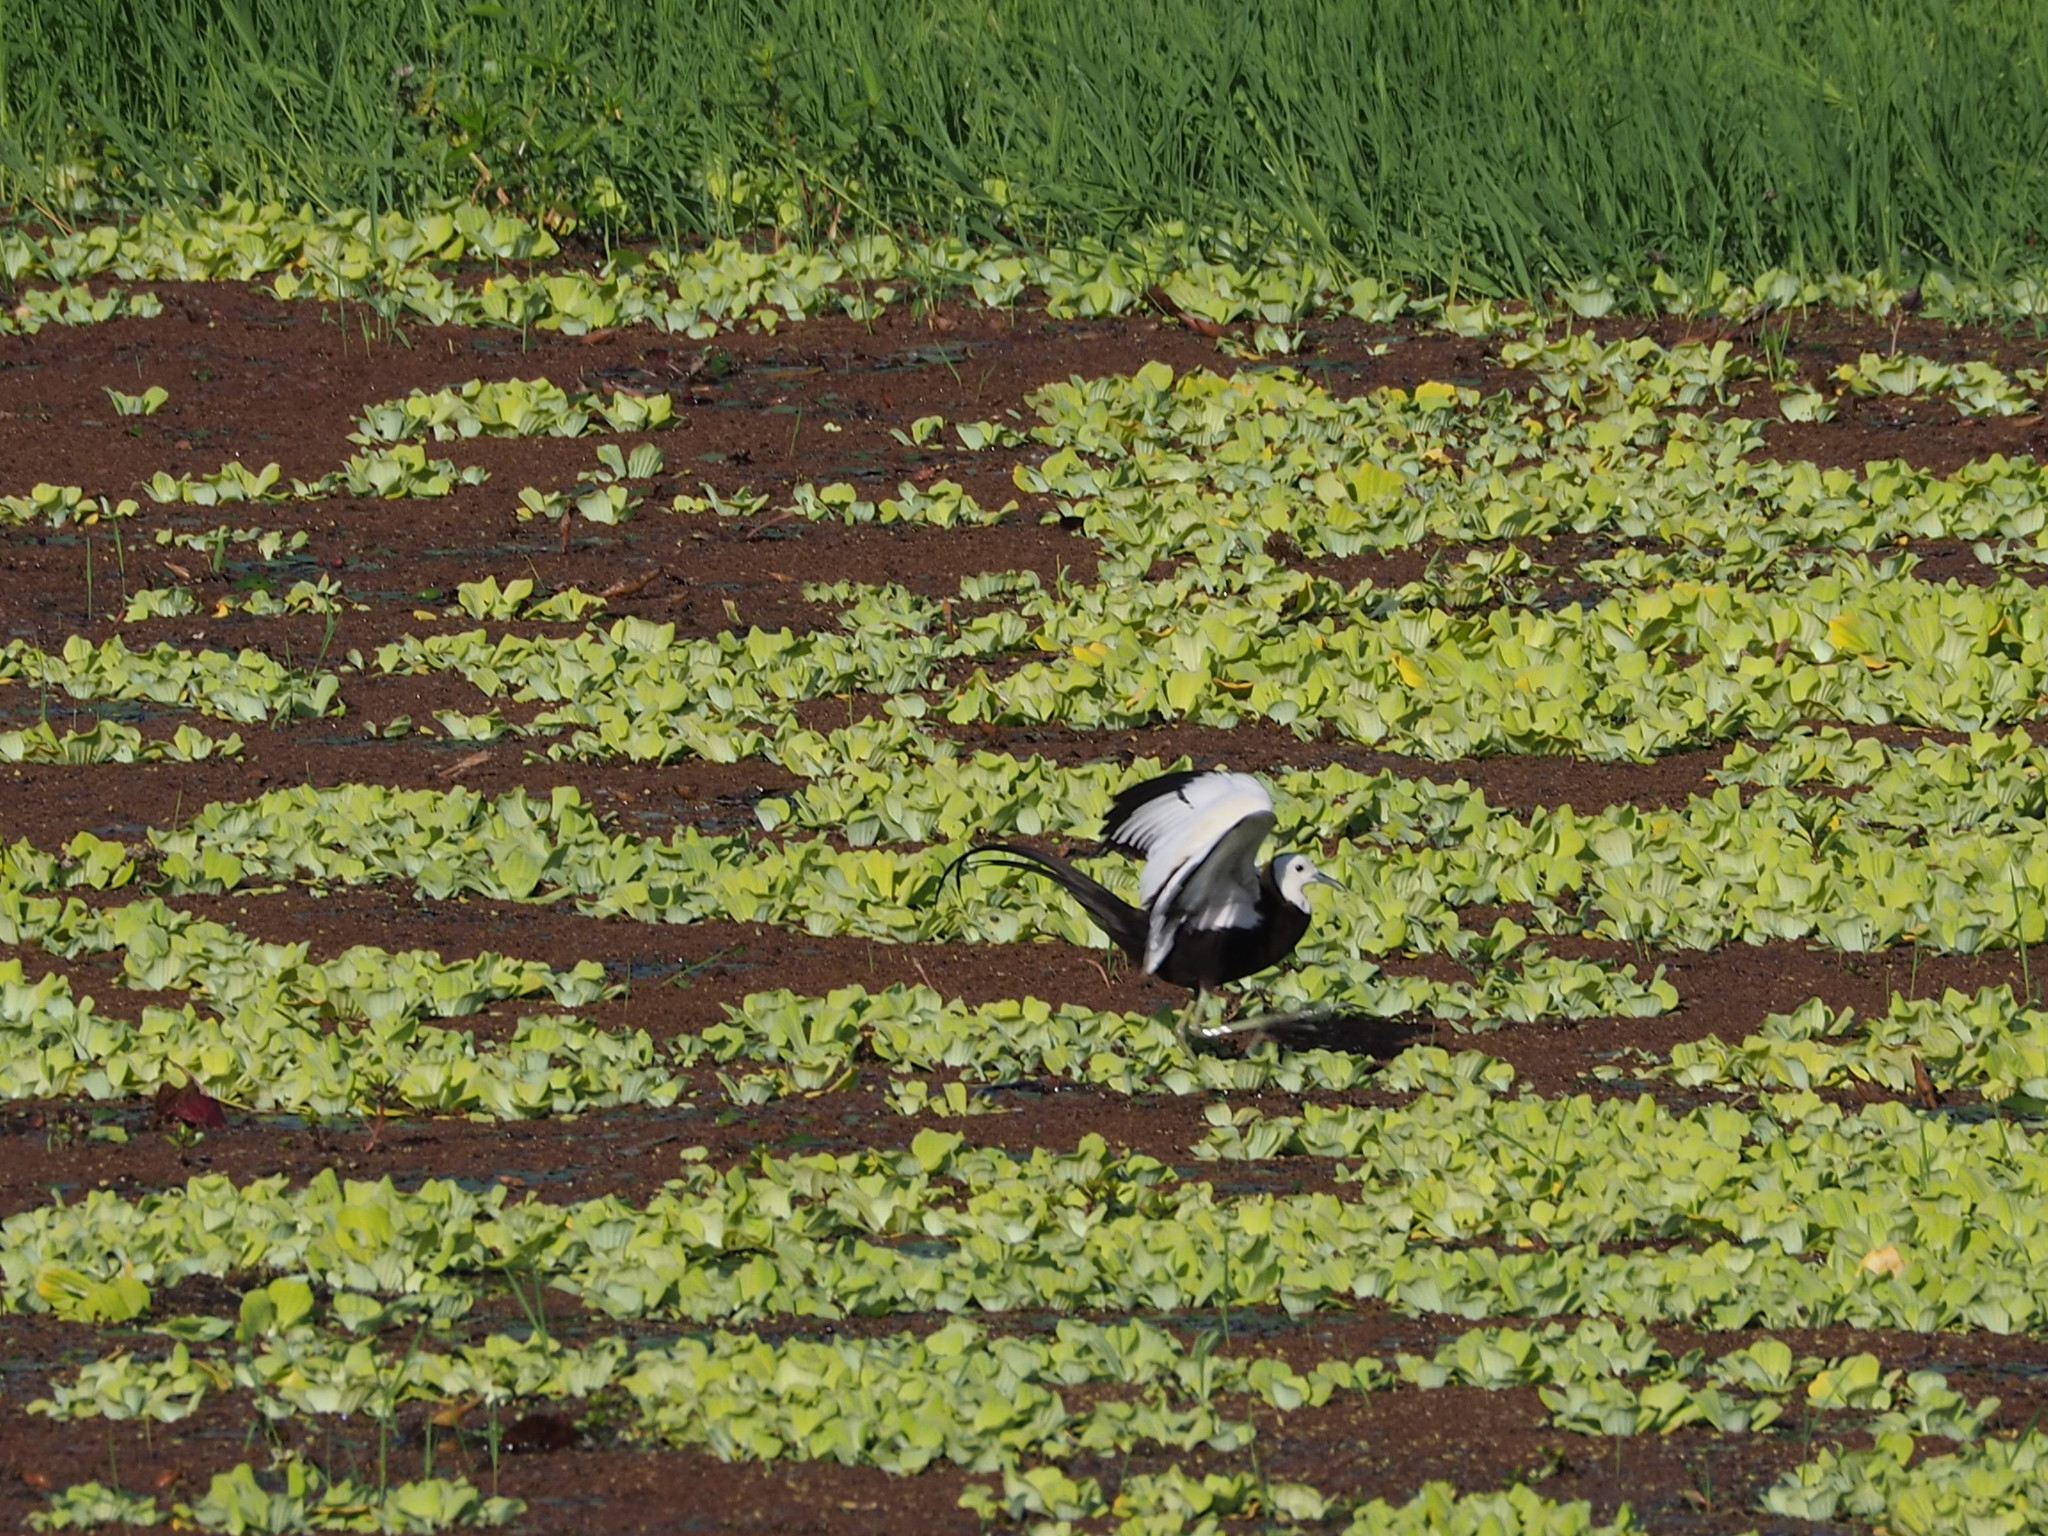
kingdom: Animalia
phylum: Chordata
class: Aves
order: Charadriiformes
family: Jacanidae
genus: Hydrophasianus
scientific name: Hydrophasianus chirurgus
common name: Pheasant-tailed jacana
